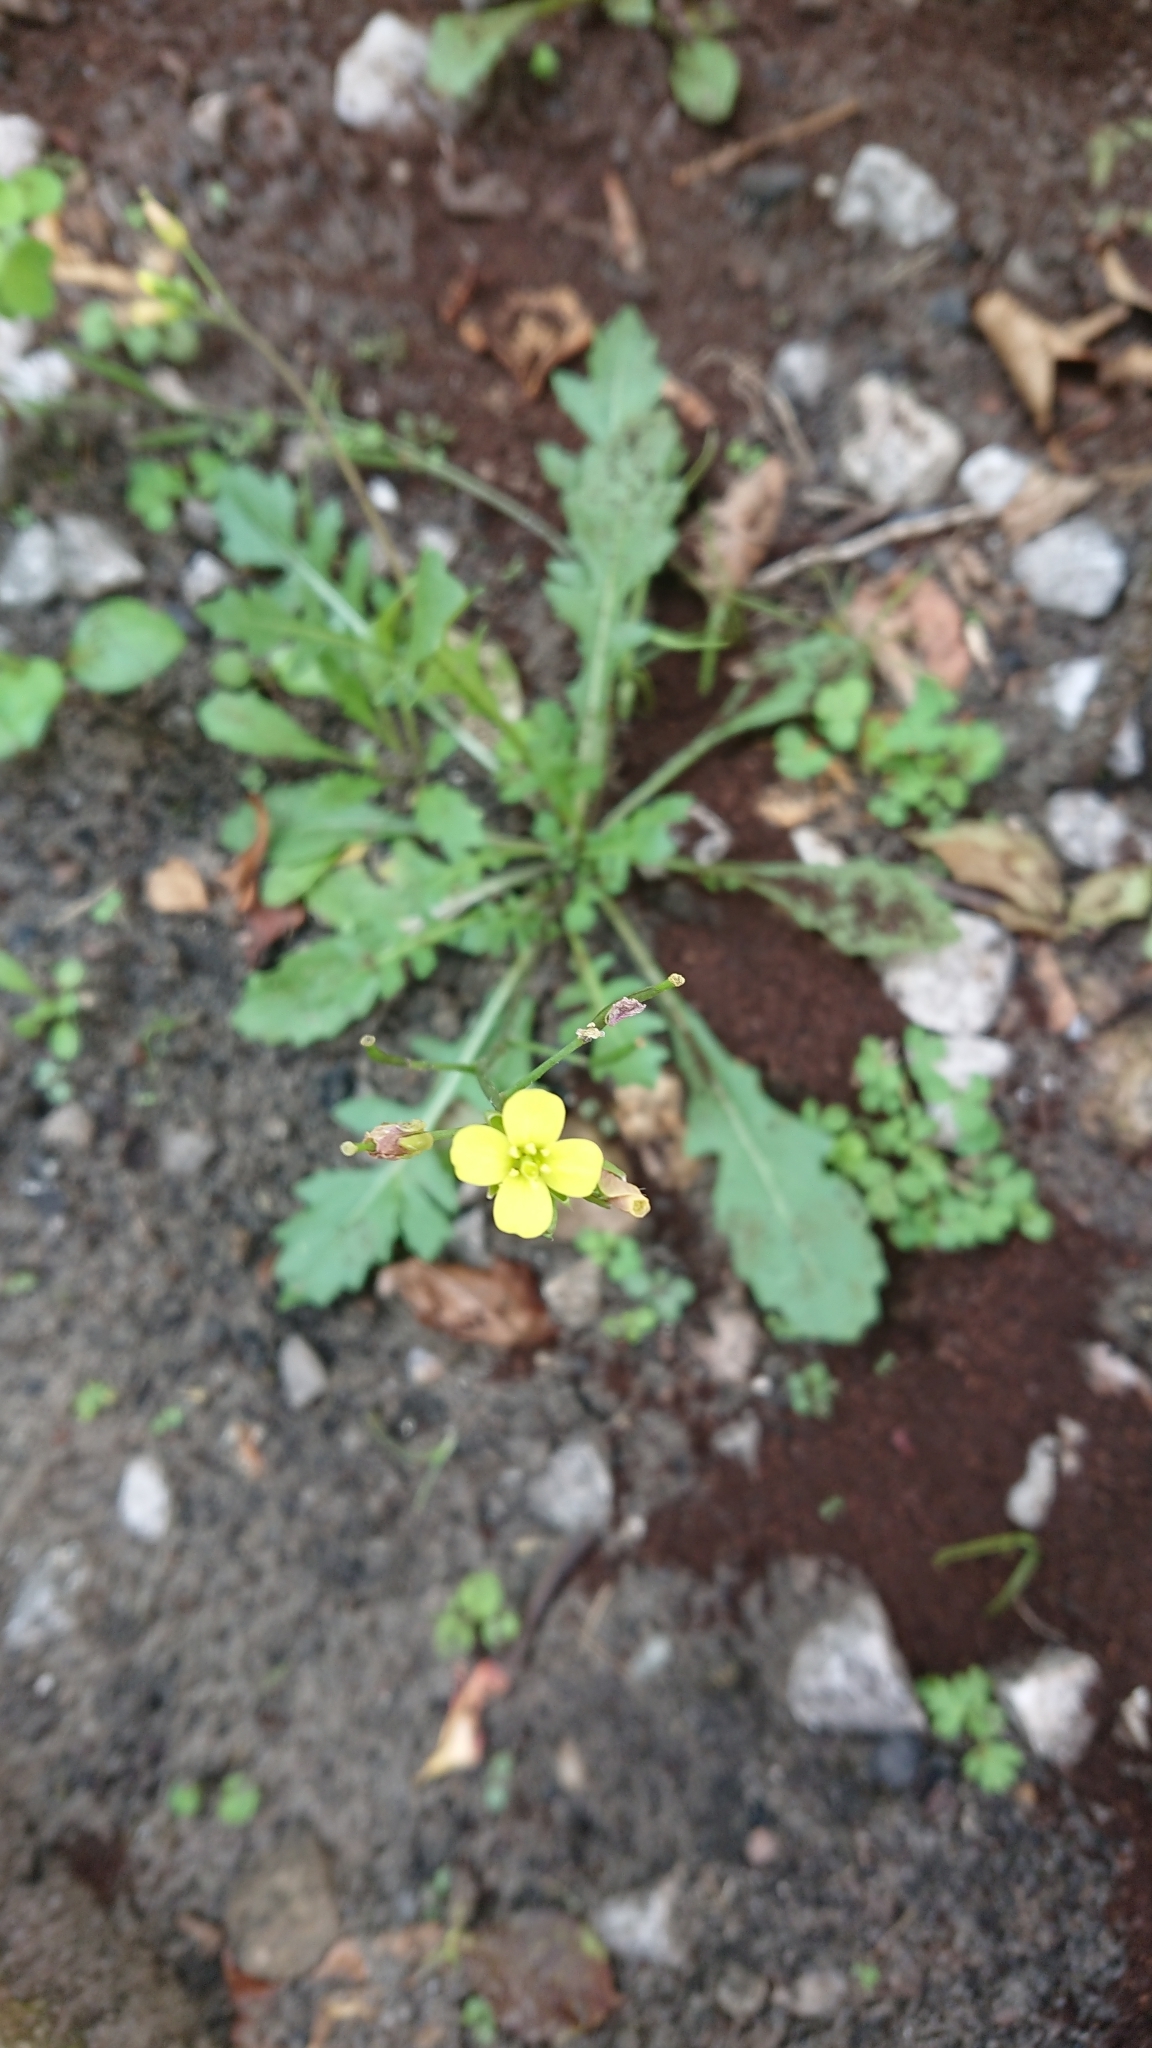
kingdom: Plantae
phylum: Tracheophyta
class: Magnoliopsida
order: Brassicales
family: Brassicaceae
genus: Diplotaxis
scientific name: Diplotaxis muralis
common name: Annual wall-rocket
